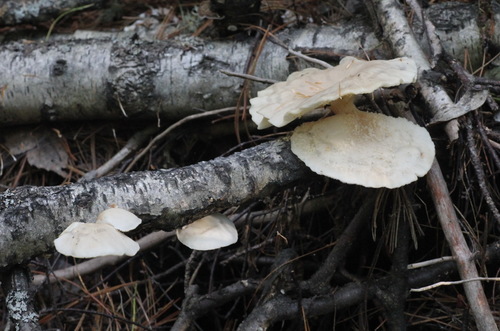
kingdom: Fungi
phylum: Basidiomycota
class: Agaricomycetes
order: Agaricales
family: Pleurotaceae
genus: Pleurotus
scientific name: Pleurotus pulmonarius
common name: Pale oyster
